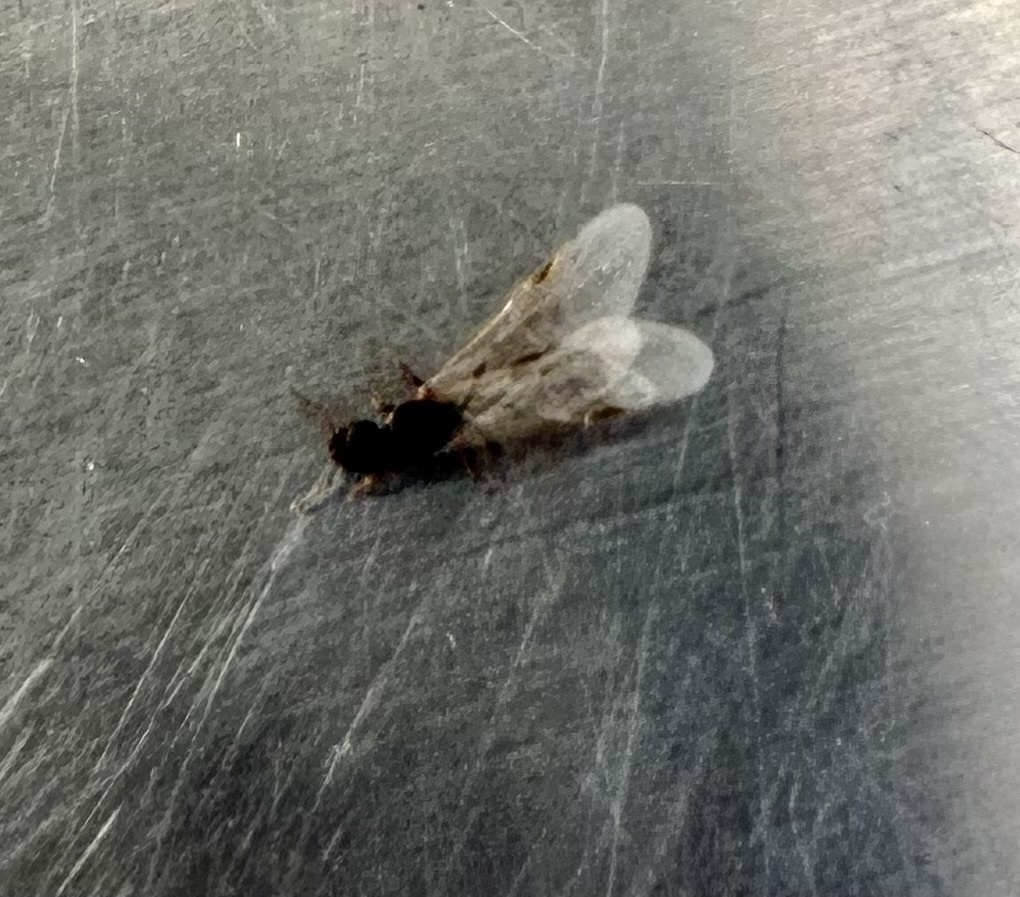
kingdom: Animalia
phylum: Arthropoda
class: Insecta
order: Hymenoptera
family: Formicidae
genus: Tetramorium
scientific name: Tetramorium immigrans
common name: Pavement ant
